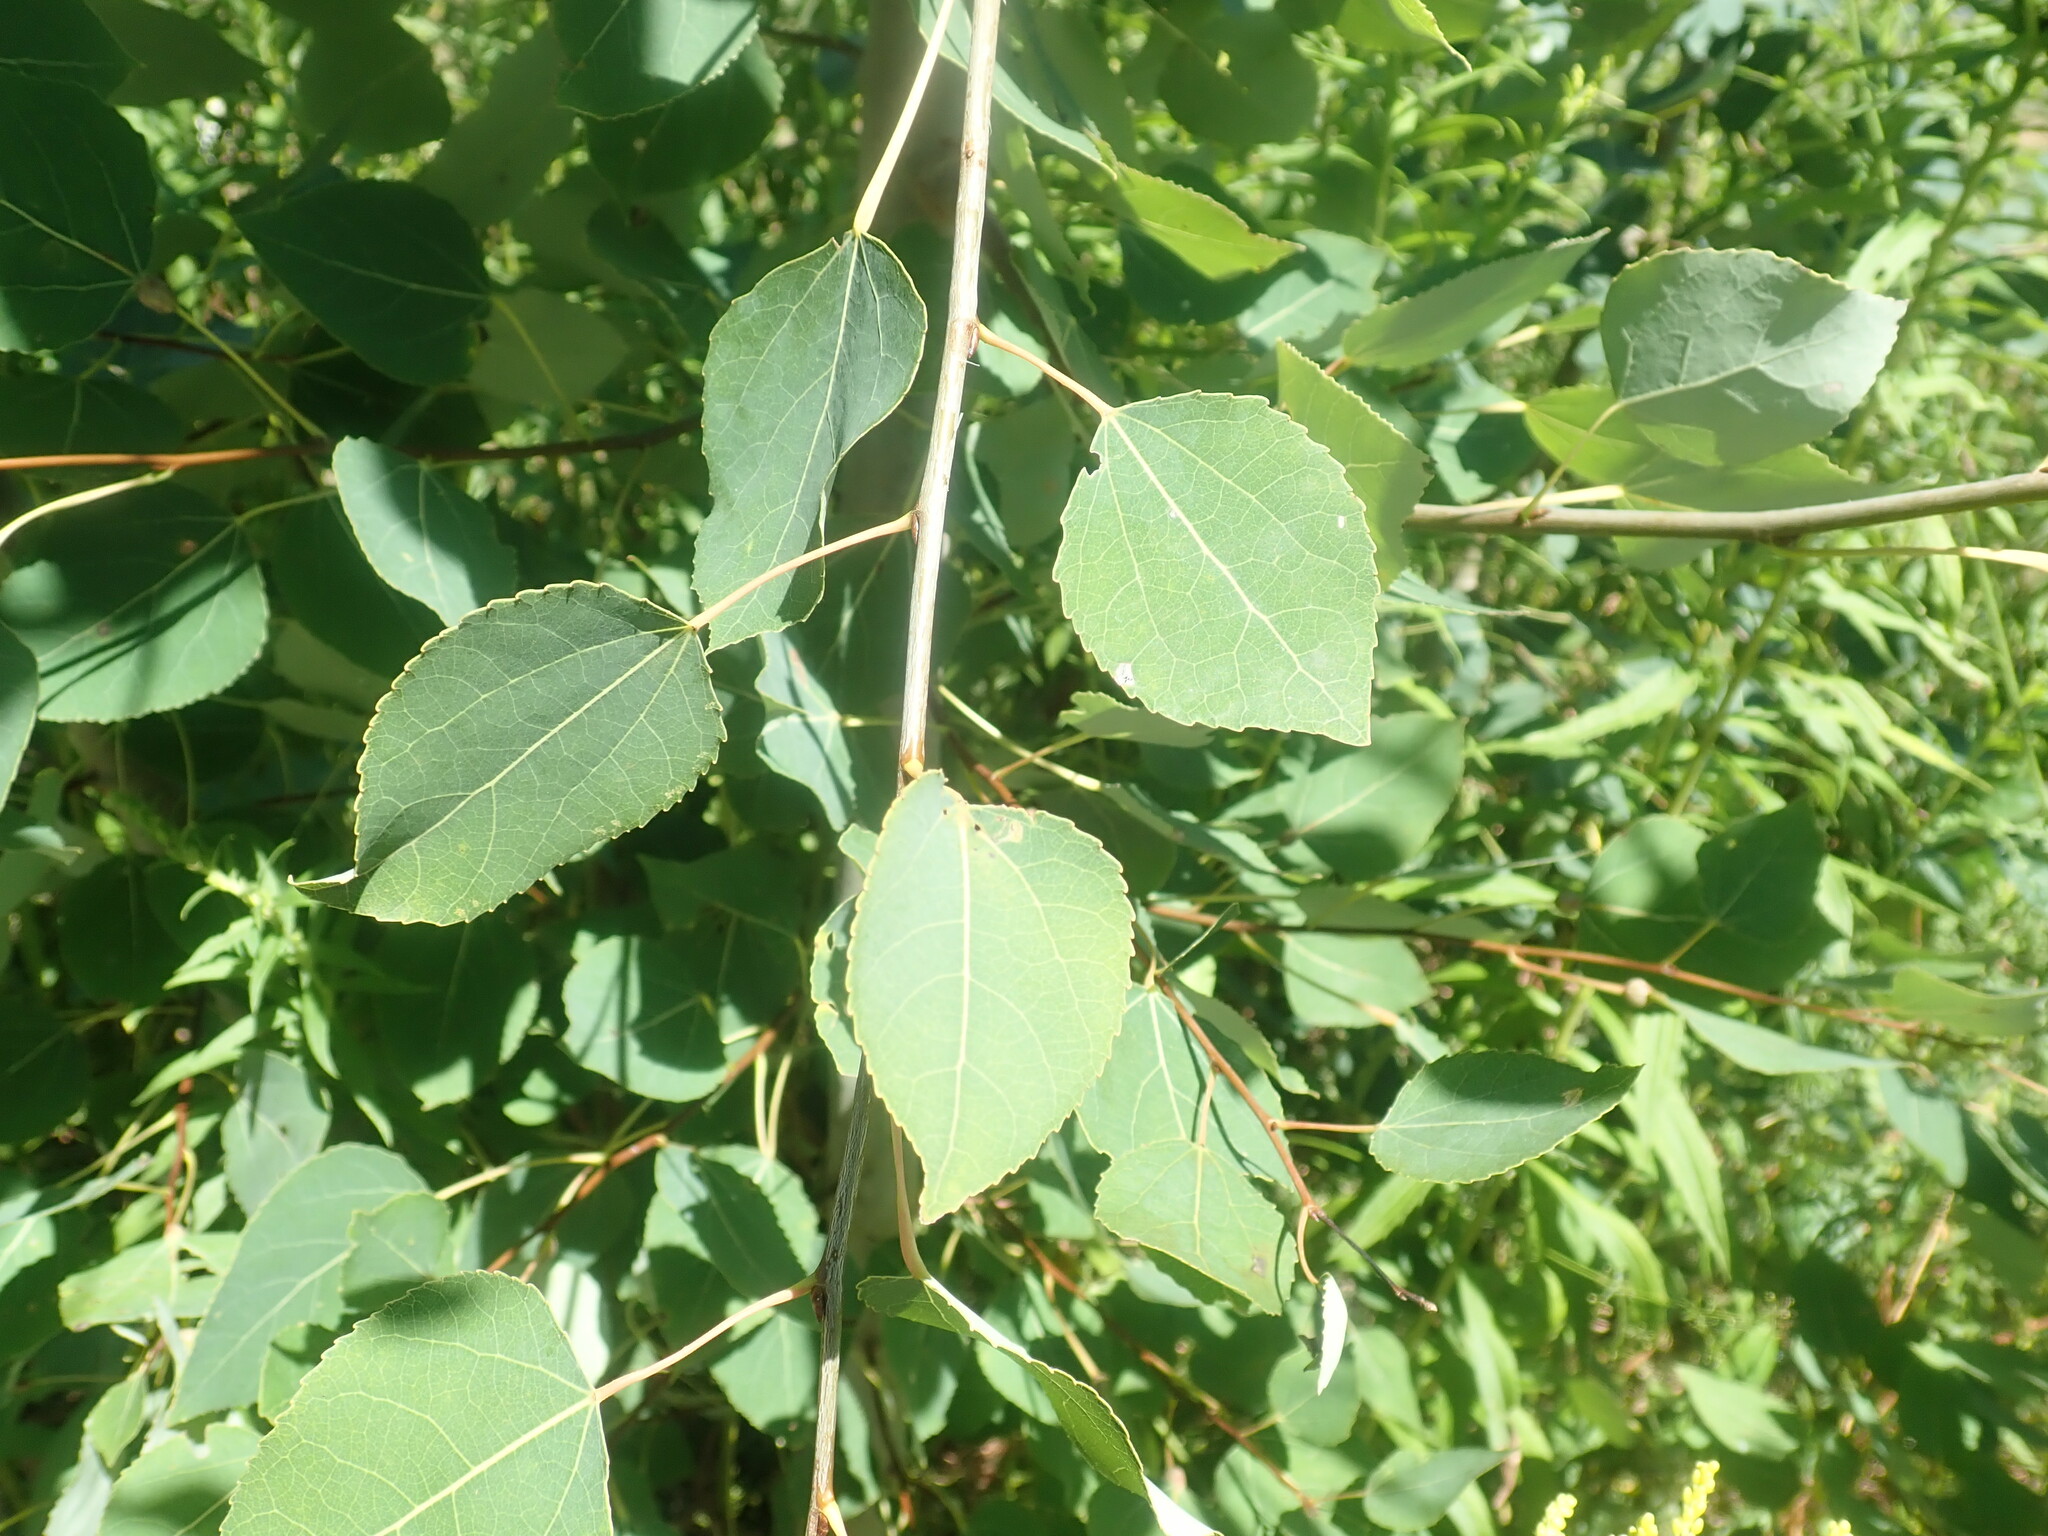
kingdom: Plantae
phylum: Tracheophyta
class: Magnoliopsida
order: Malpighiales
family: Salicaceae
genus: Populus
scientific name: Populus tremuloides
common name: Quaking aspen
